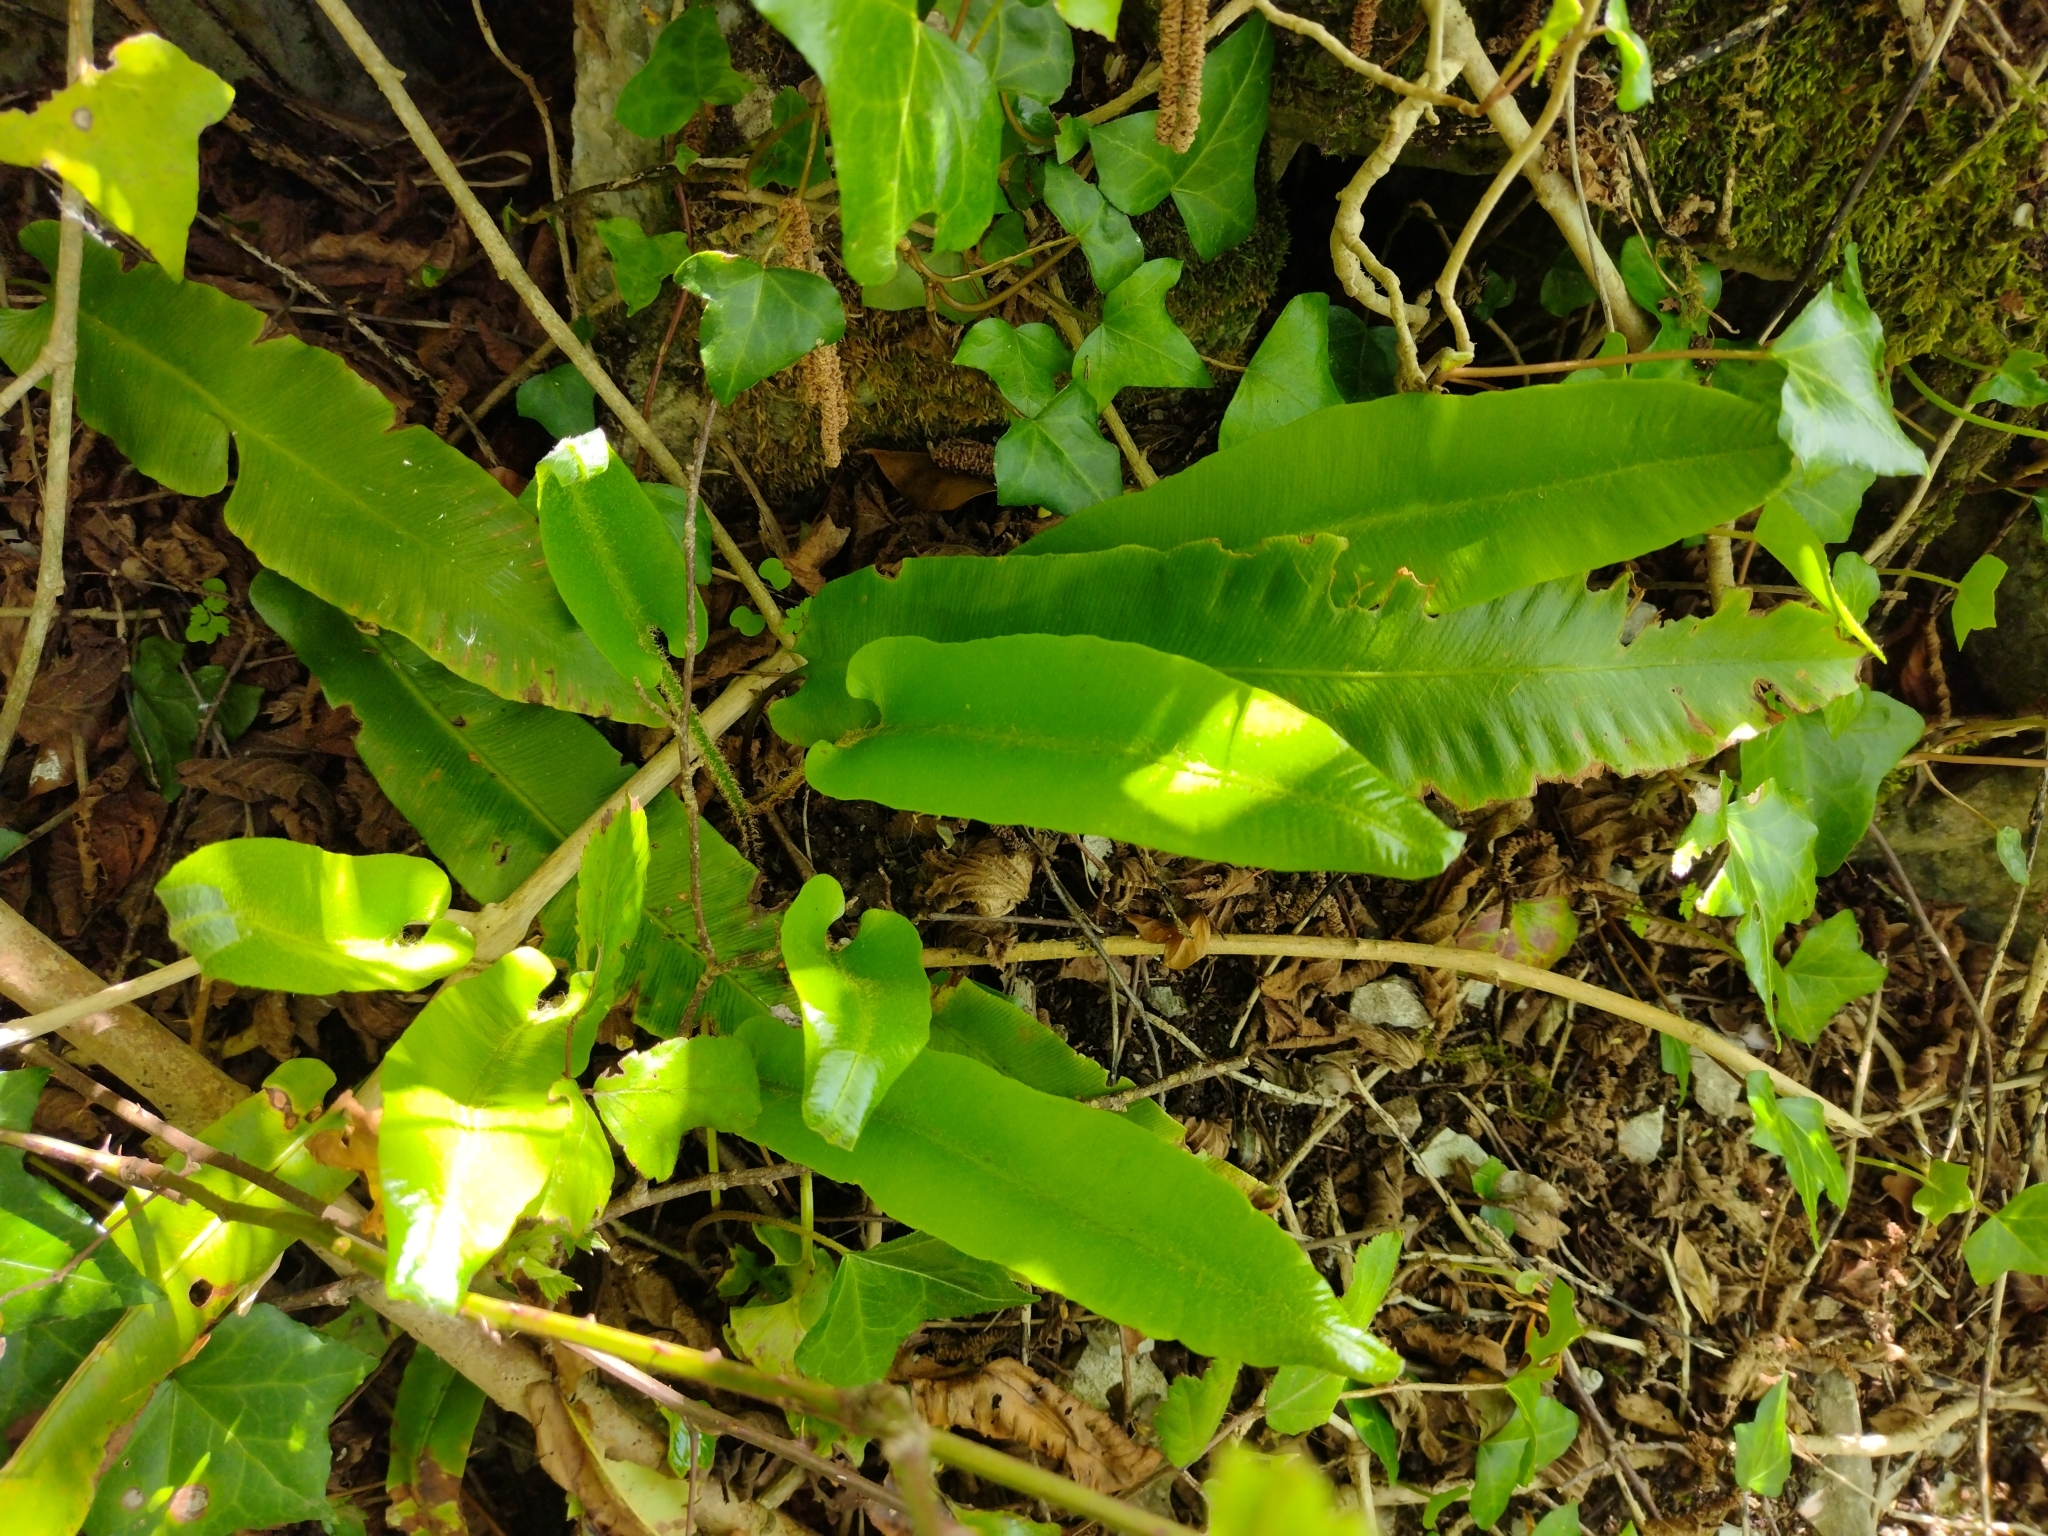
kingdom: Plantae
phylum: Tracheophyta
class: Polypodiopsida
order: Polypodiales
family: Aspleniaceae
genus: Asplenium
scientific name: Asplenium scolopendrium
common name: Hart's-tongue fern
